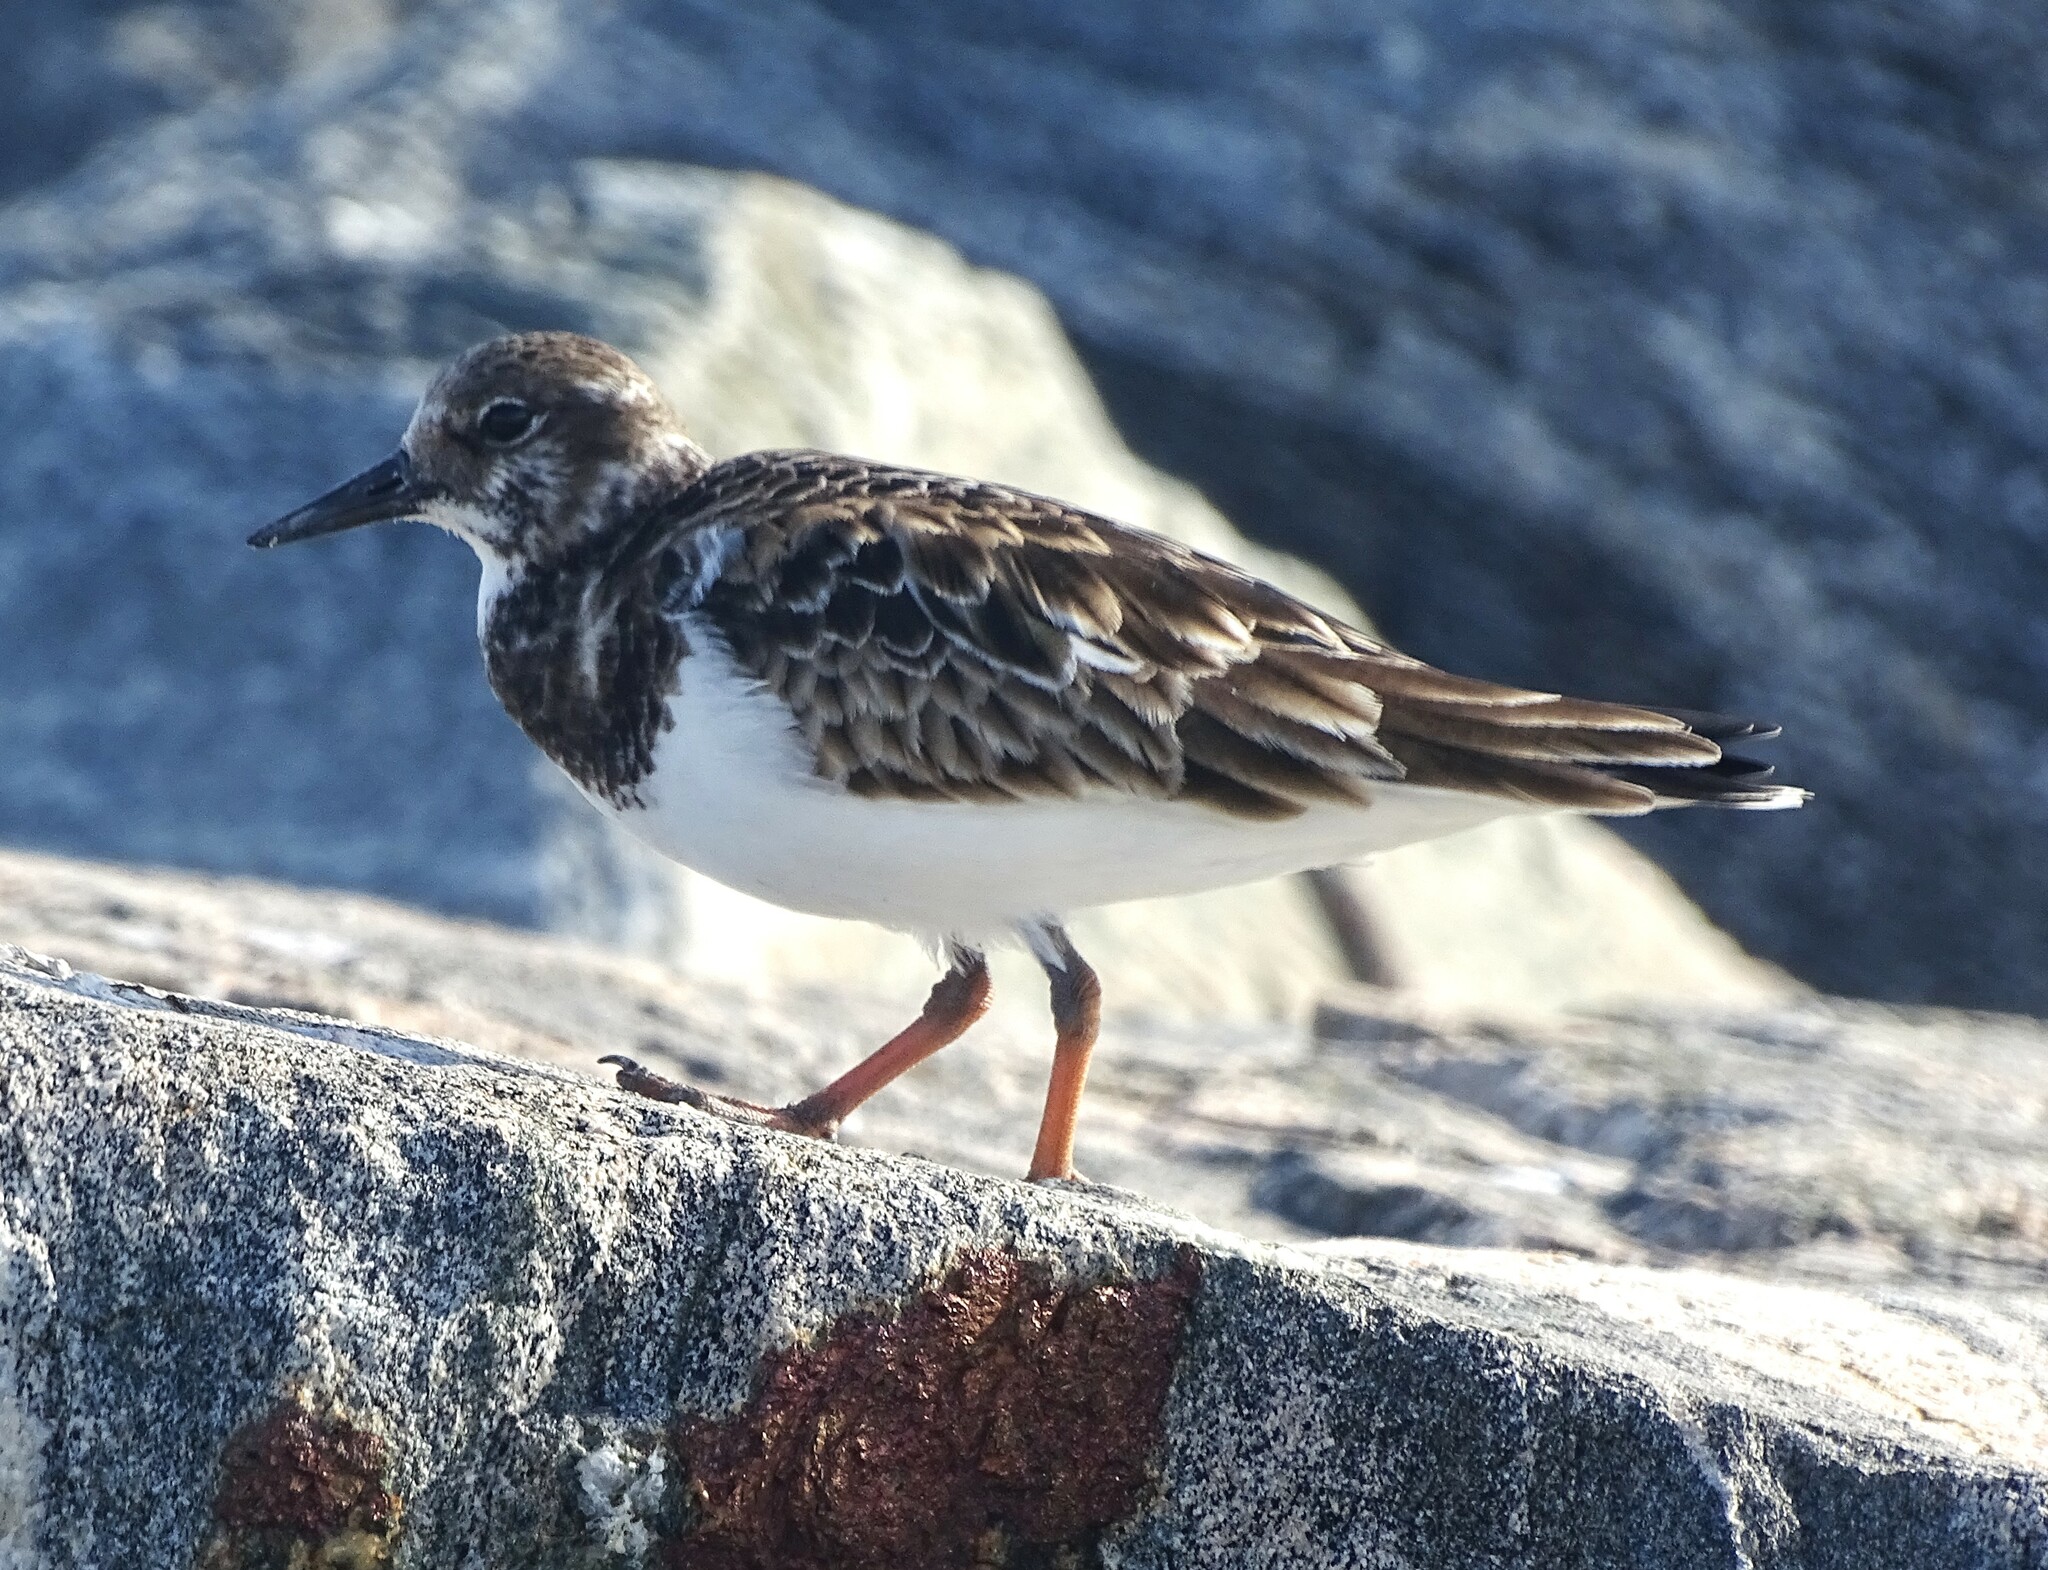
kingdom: Animalia
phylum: Chordata
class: Aves
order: Charadriiformes
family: Scolopacidae
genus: Arenaria
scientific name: Arenaria interpres
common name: Ruddy turnstone
